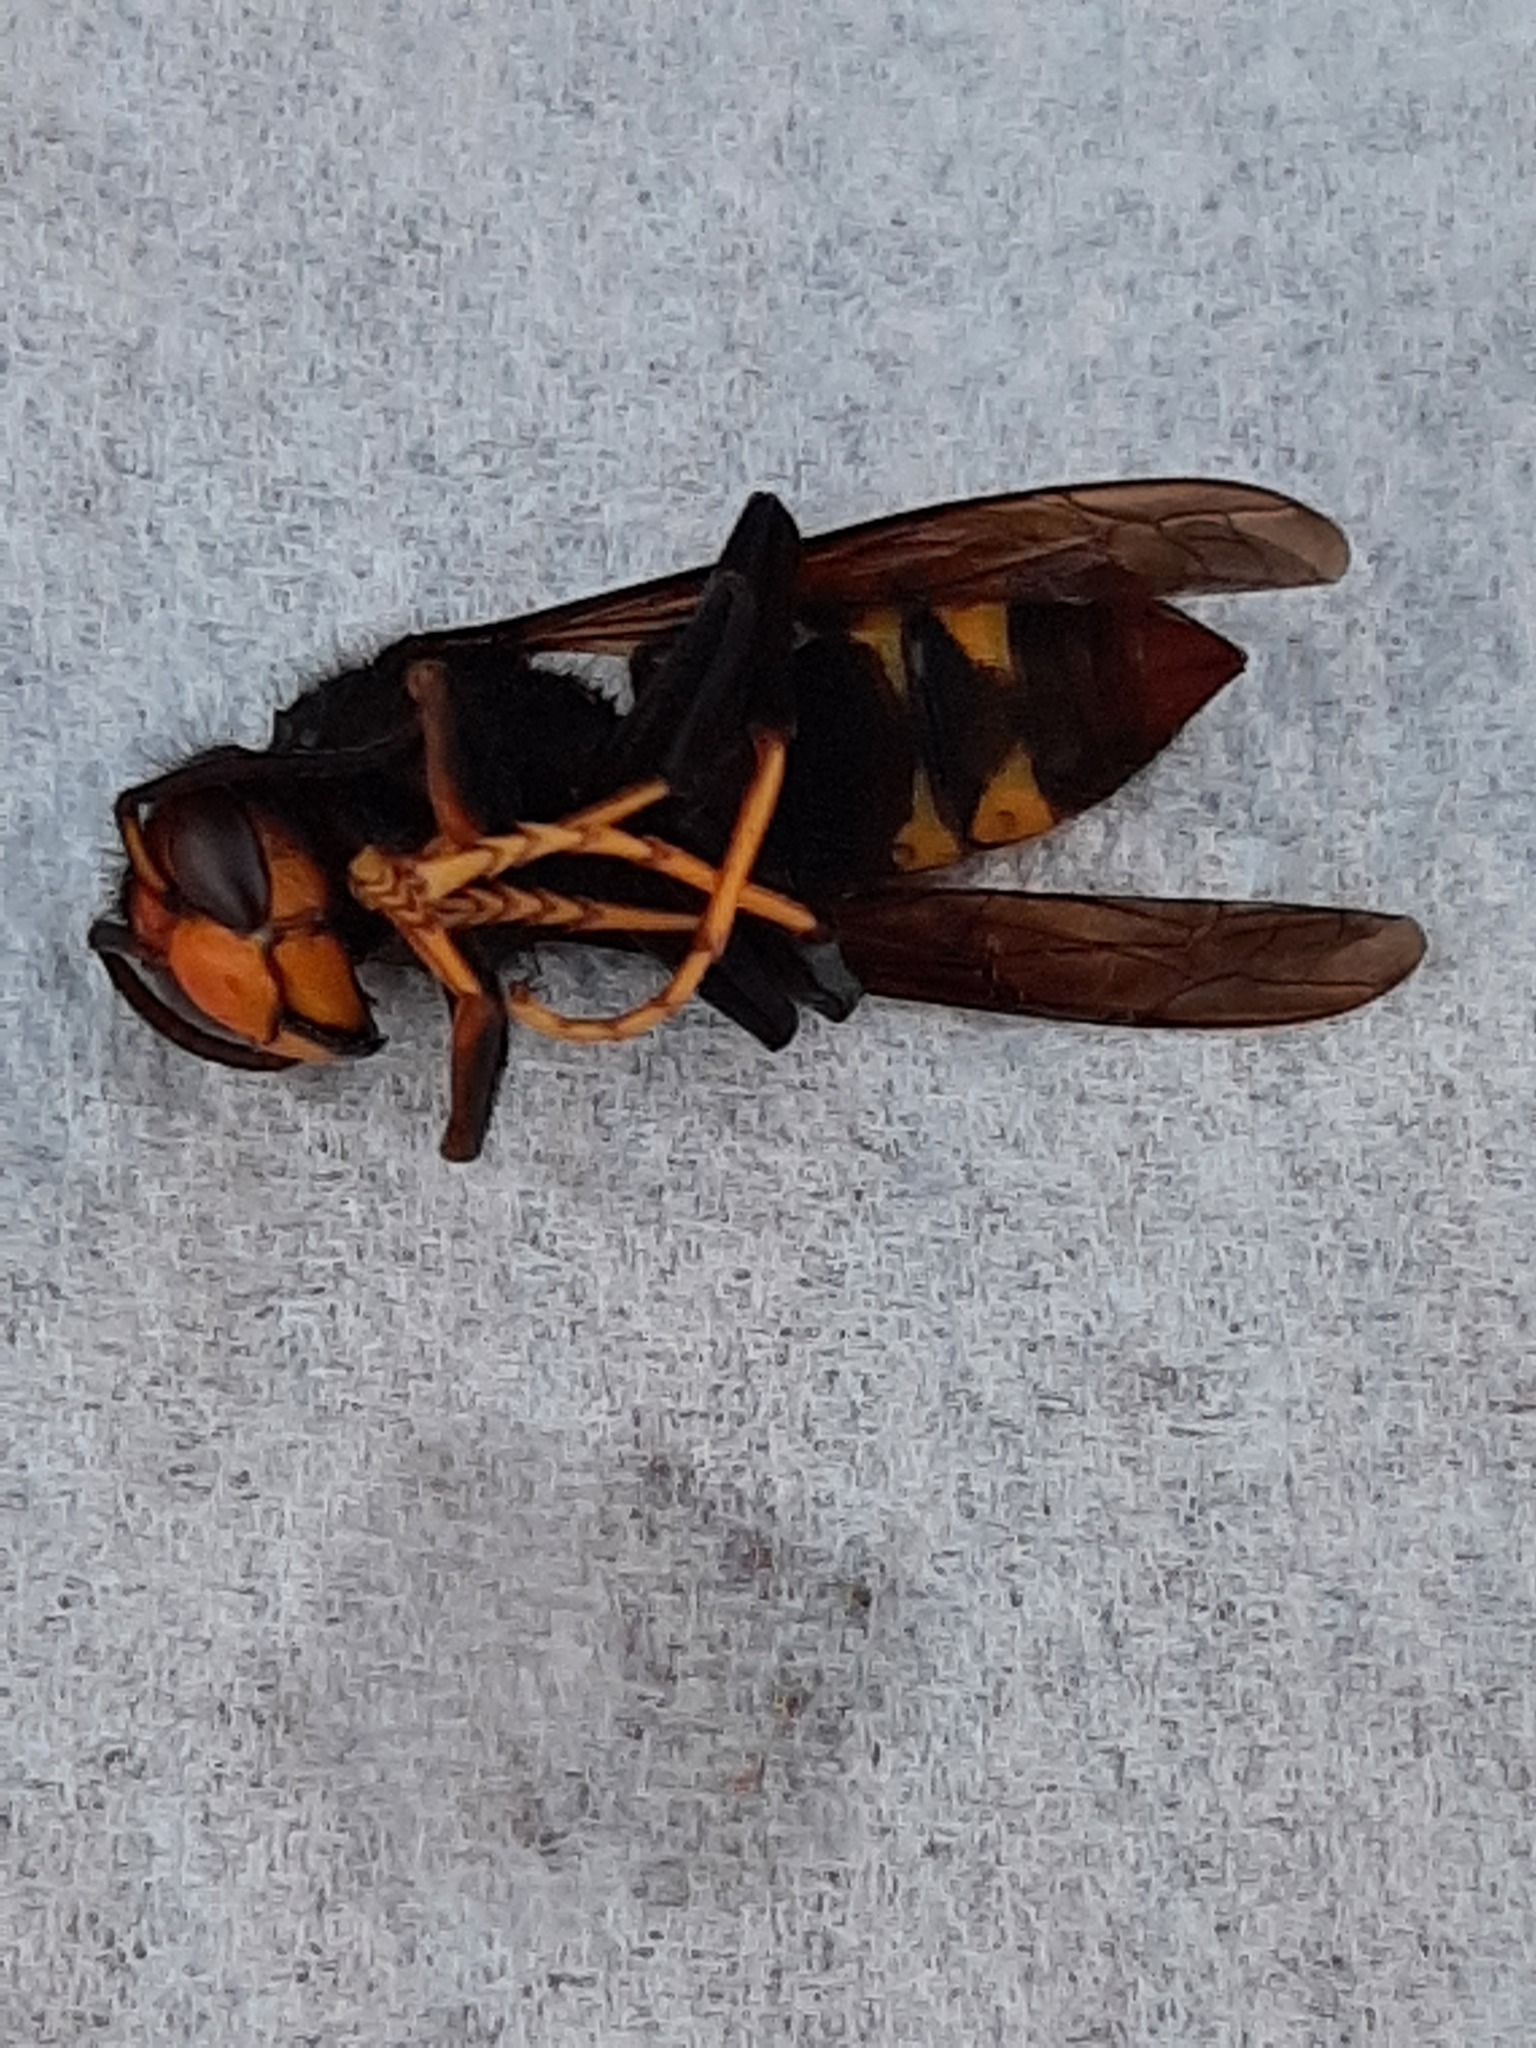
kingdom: Animalia
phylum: Arthropoda
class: Insecta
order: Hymenoptera
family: Vespidae
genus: Vespa
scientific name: Vespa velutina
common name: Asian hornet
